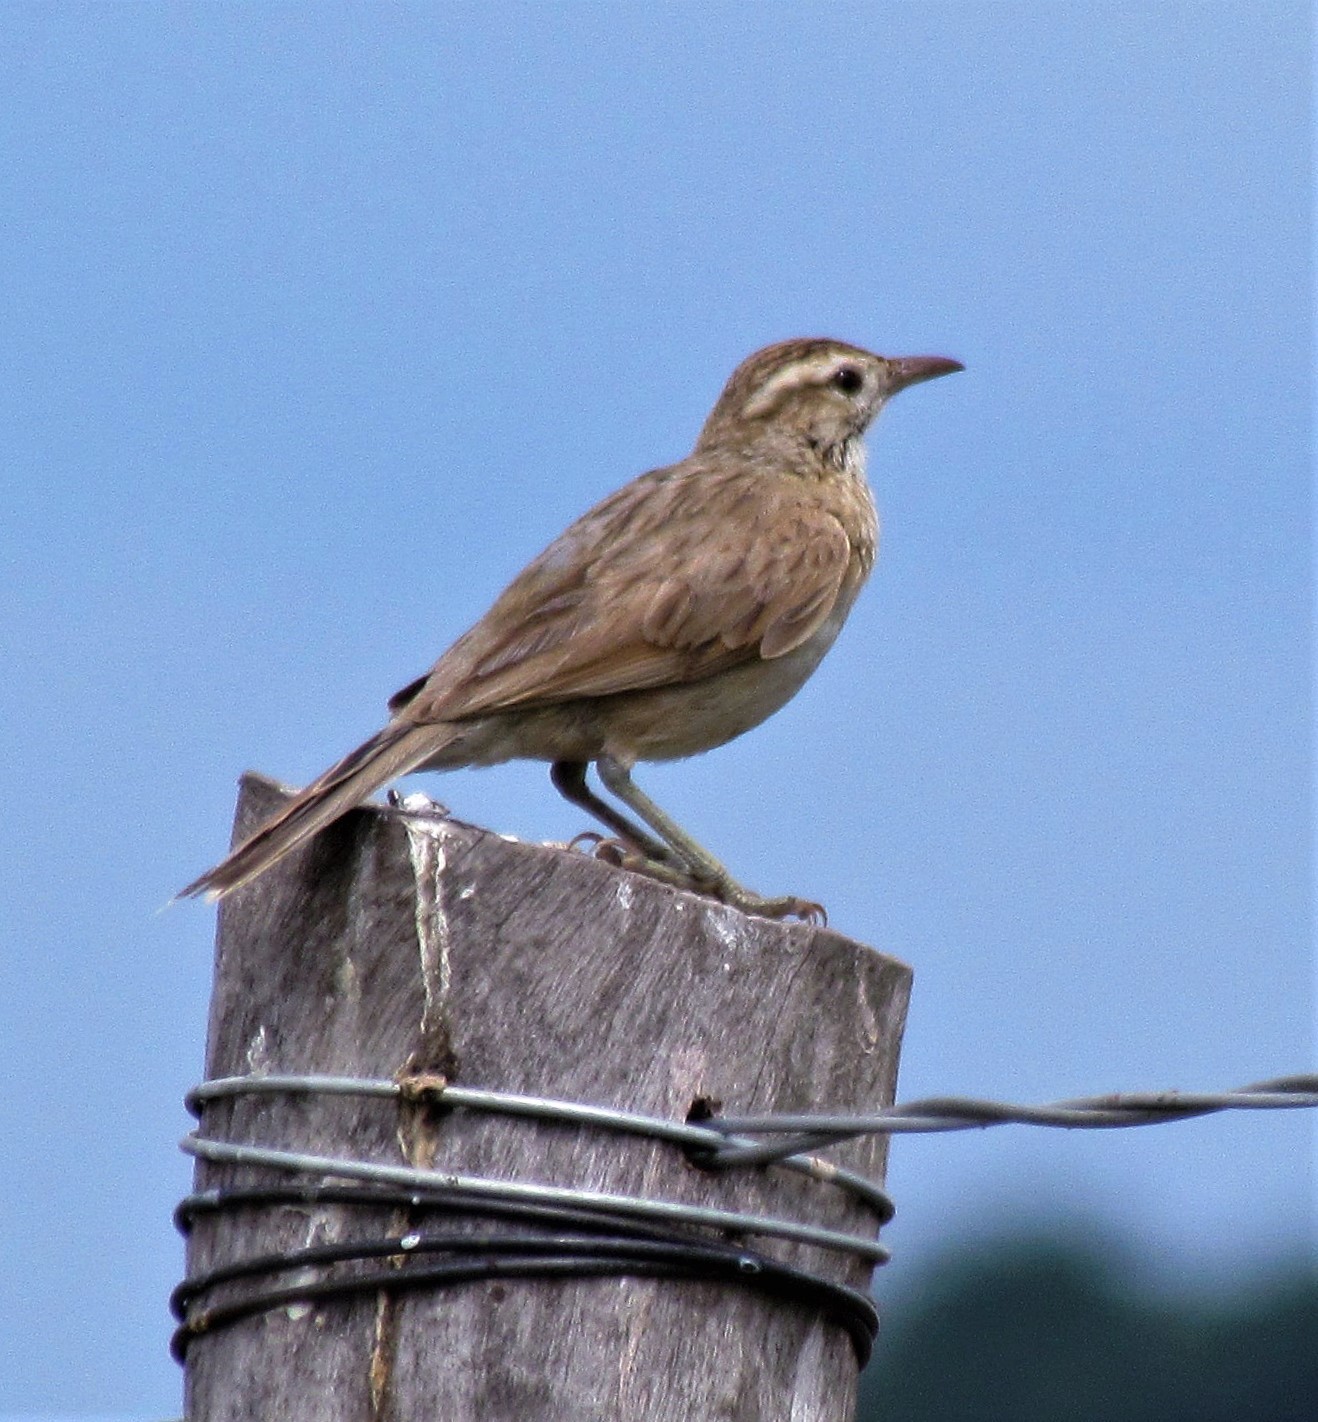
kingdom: Animalia
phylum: Chordata
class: Aves
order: Passeriformes
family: Furnariidae
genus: Anumbius
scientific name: Anumbius annumbi
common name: Firewood-gatherer
